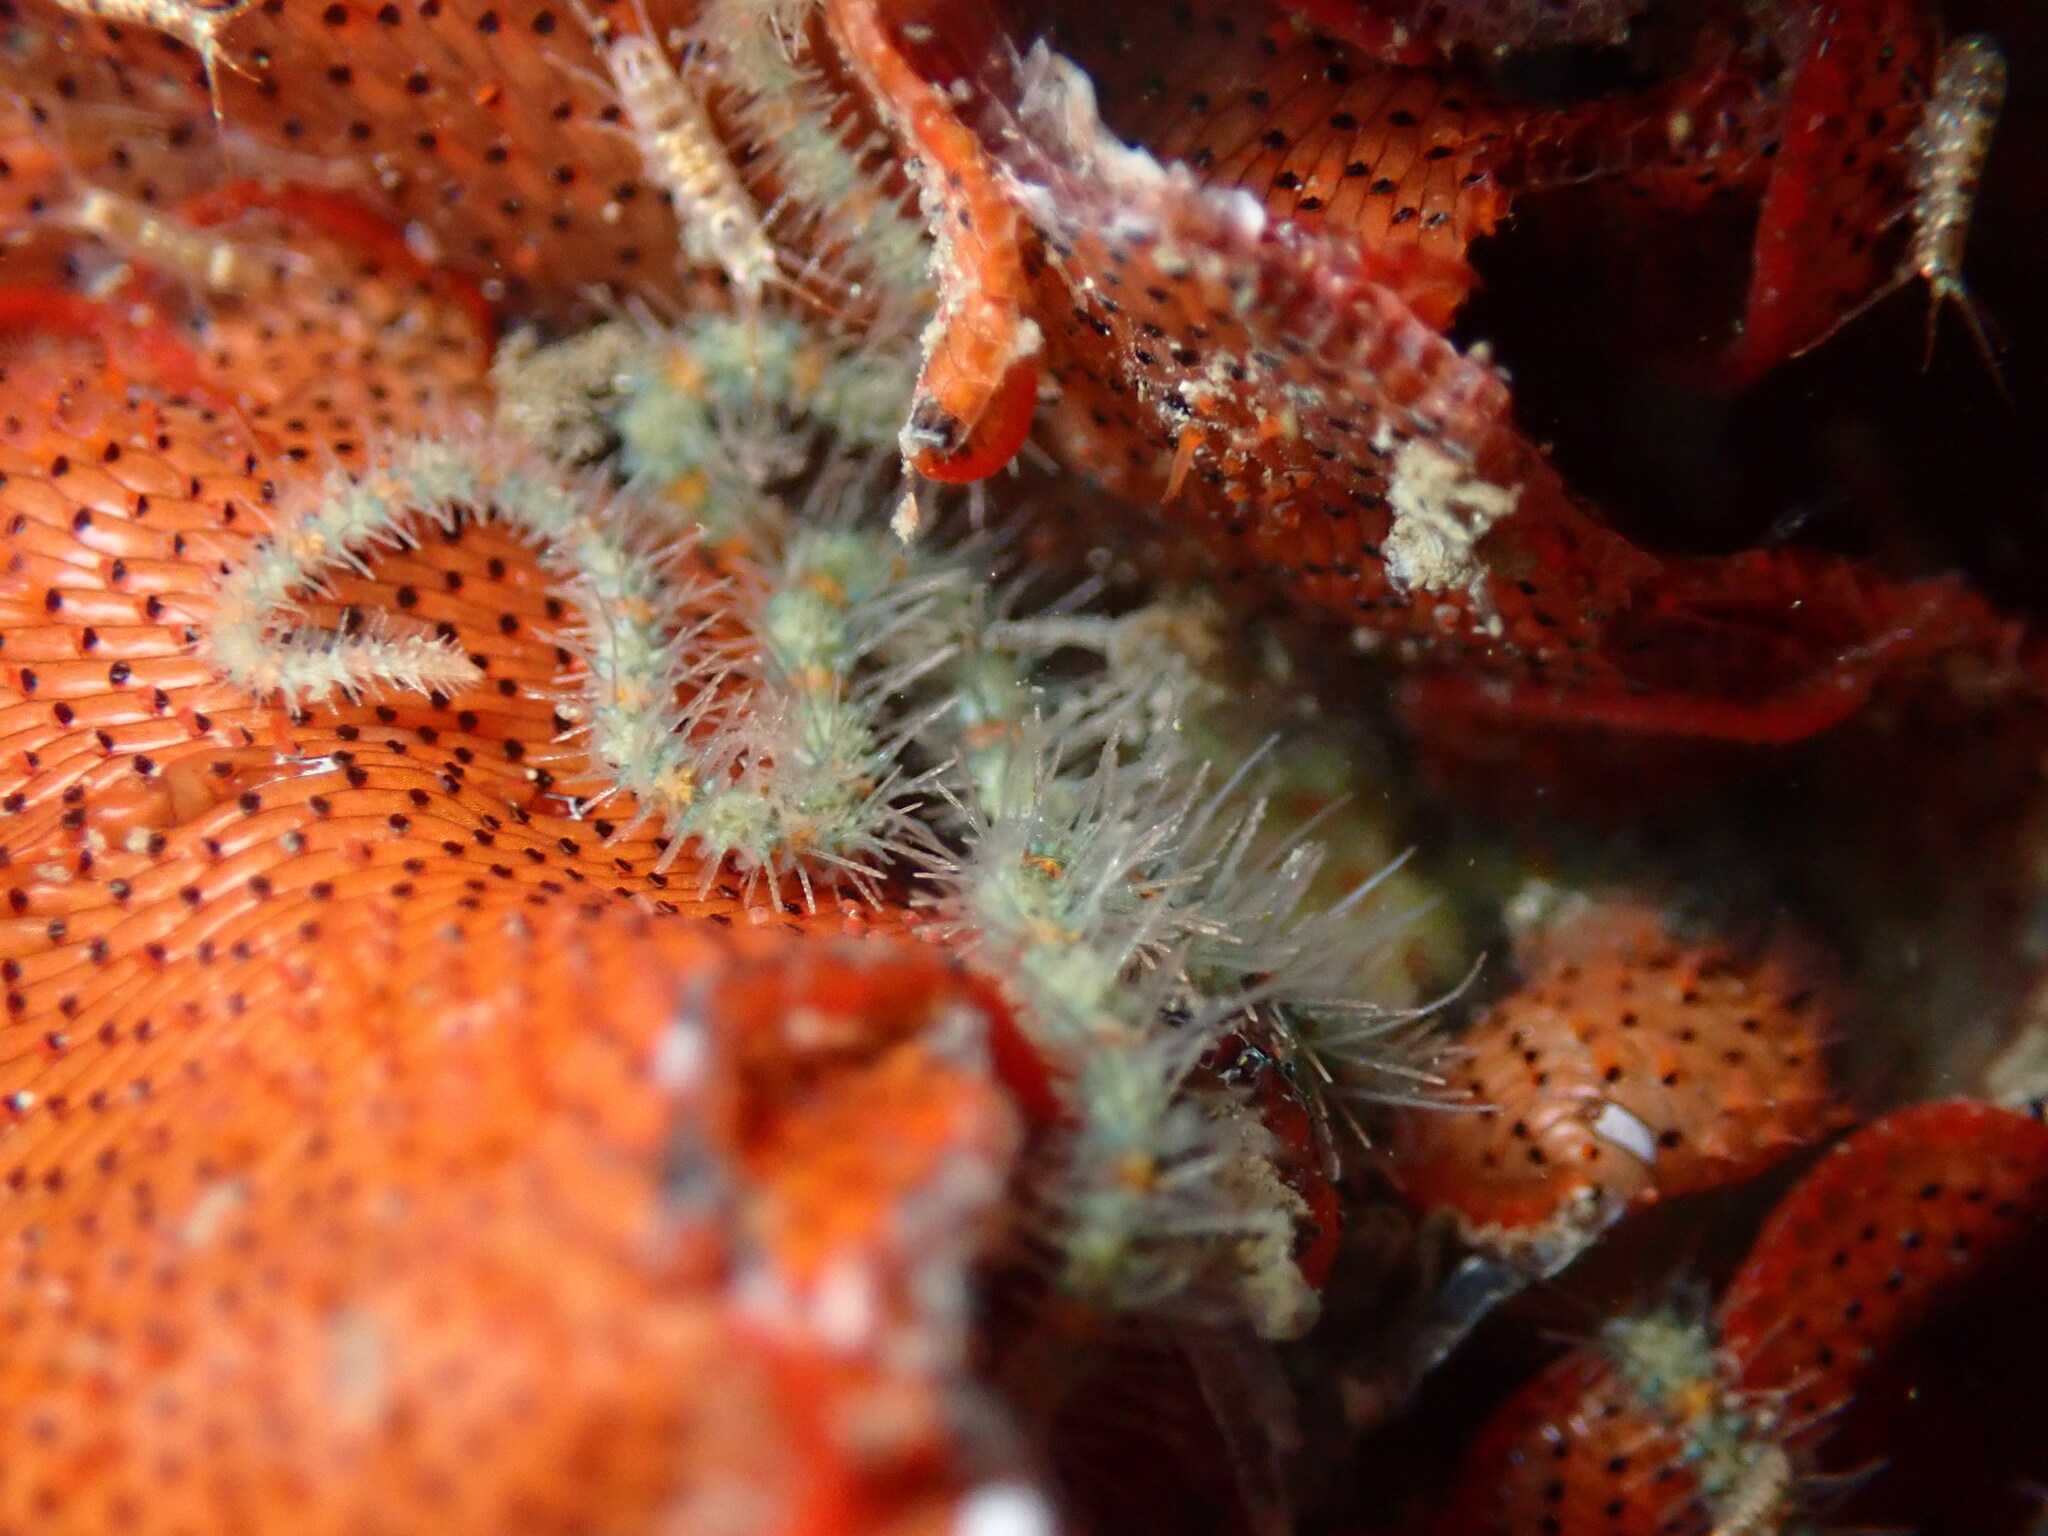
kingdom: Animalia
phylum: Echinodermata
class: Ophiuroidea
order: Amphilepidida
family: Ophiotrichidae
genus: Ophiothrix
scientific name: Ophiothrix spiculata
